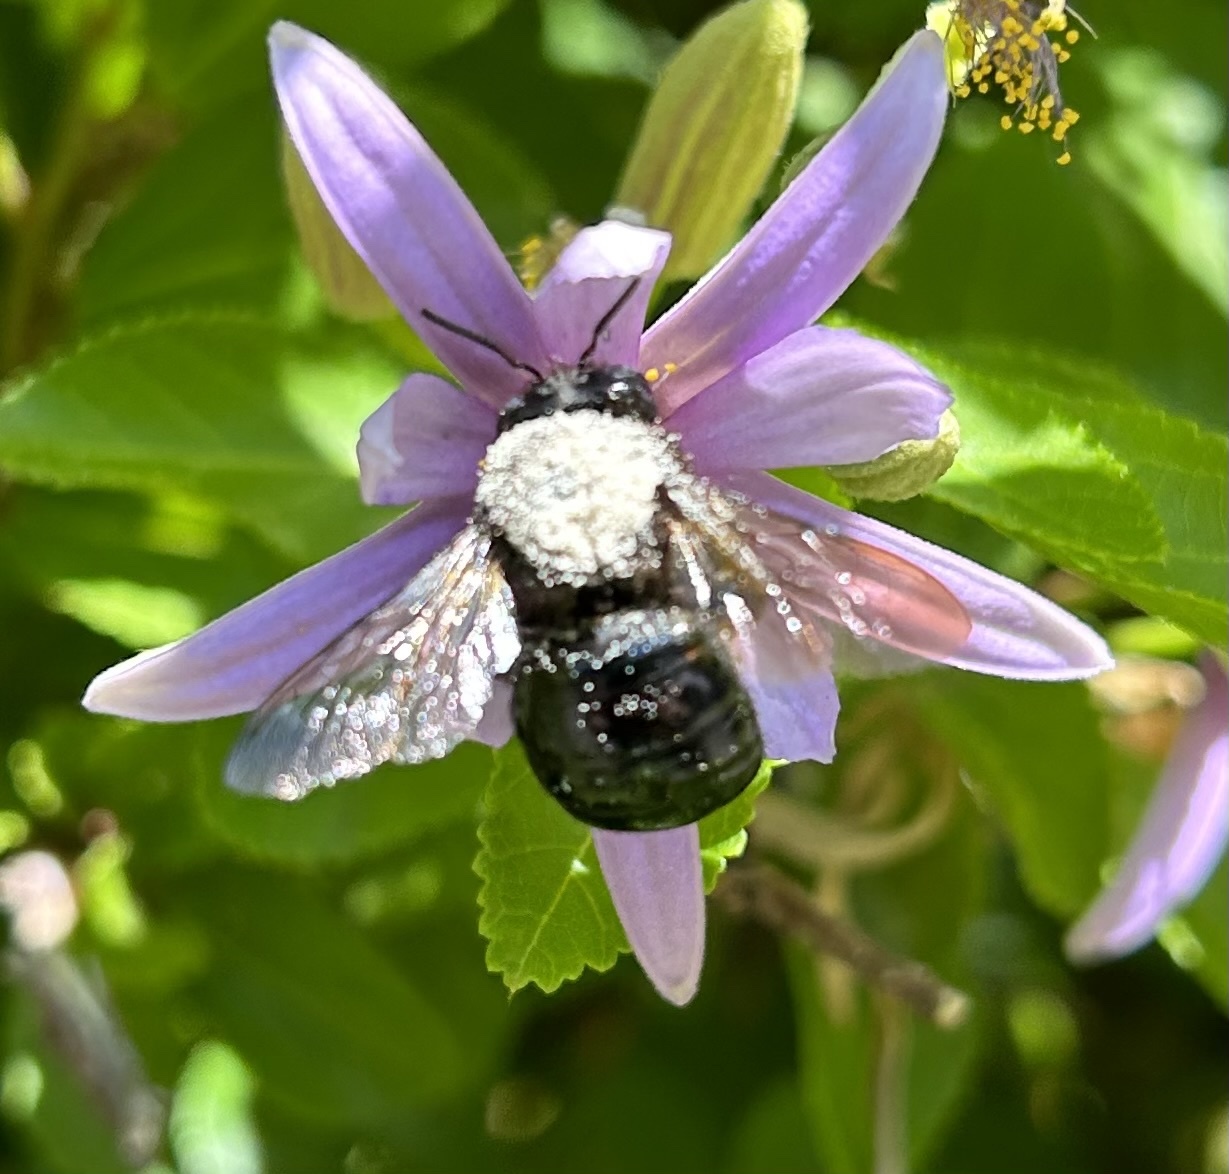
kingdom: Animalia
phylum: Arthropoda
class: Insecta
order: Hymenoptera
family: Apidae
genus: Xylocopa
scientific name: Xylocopa tabaniformis
